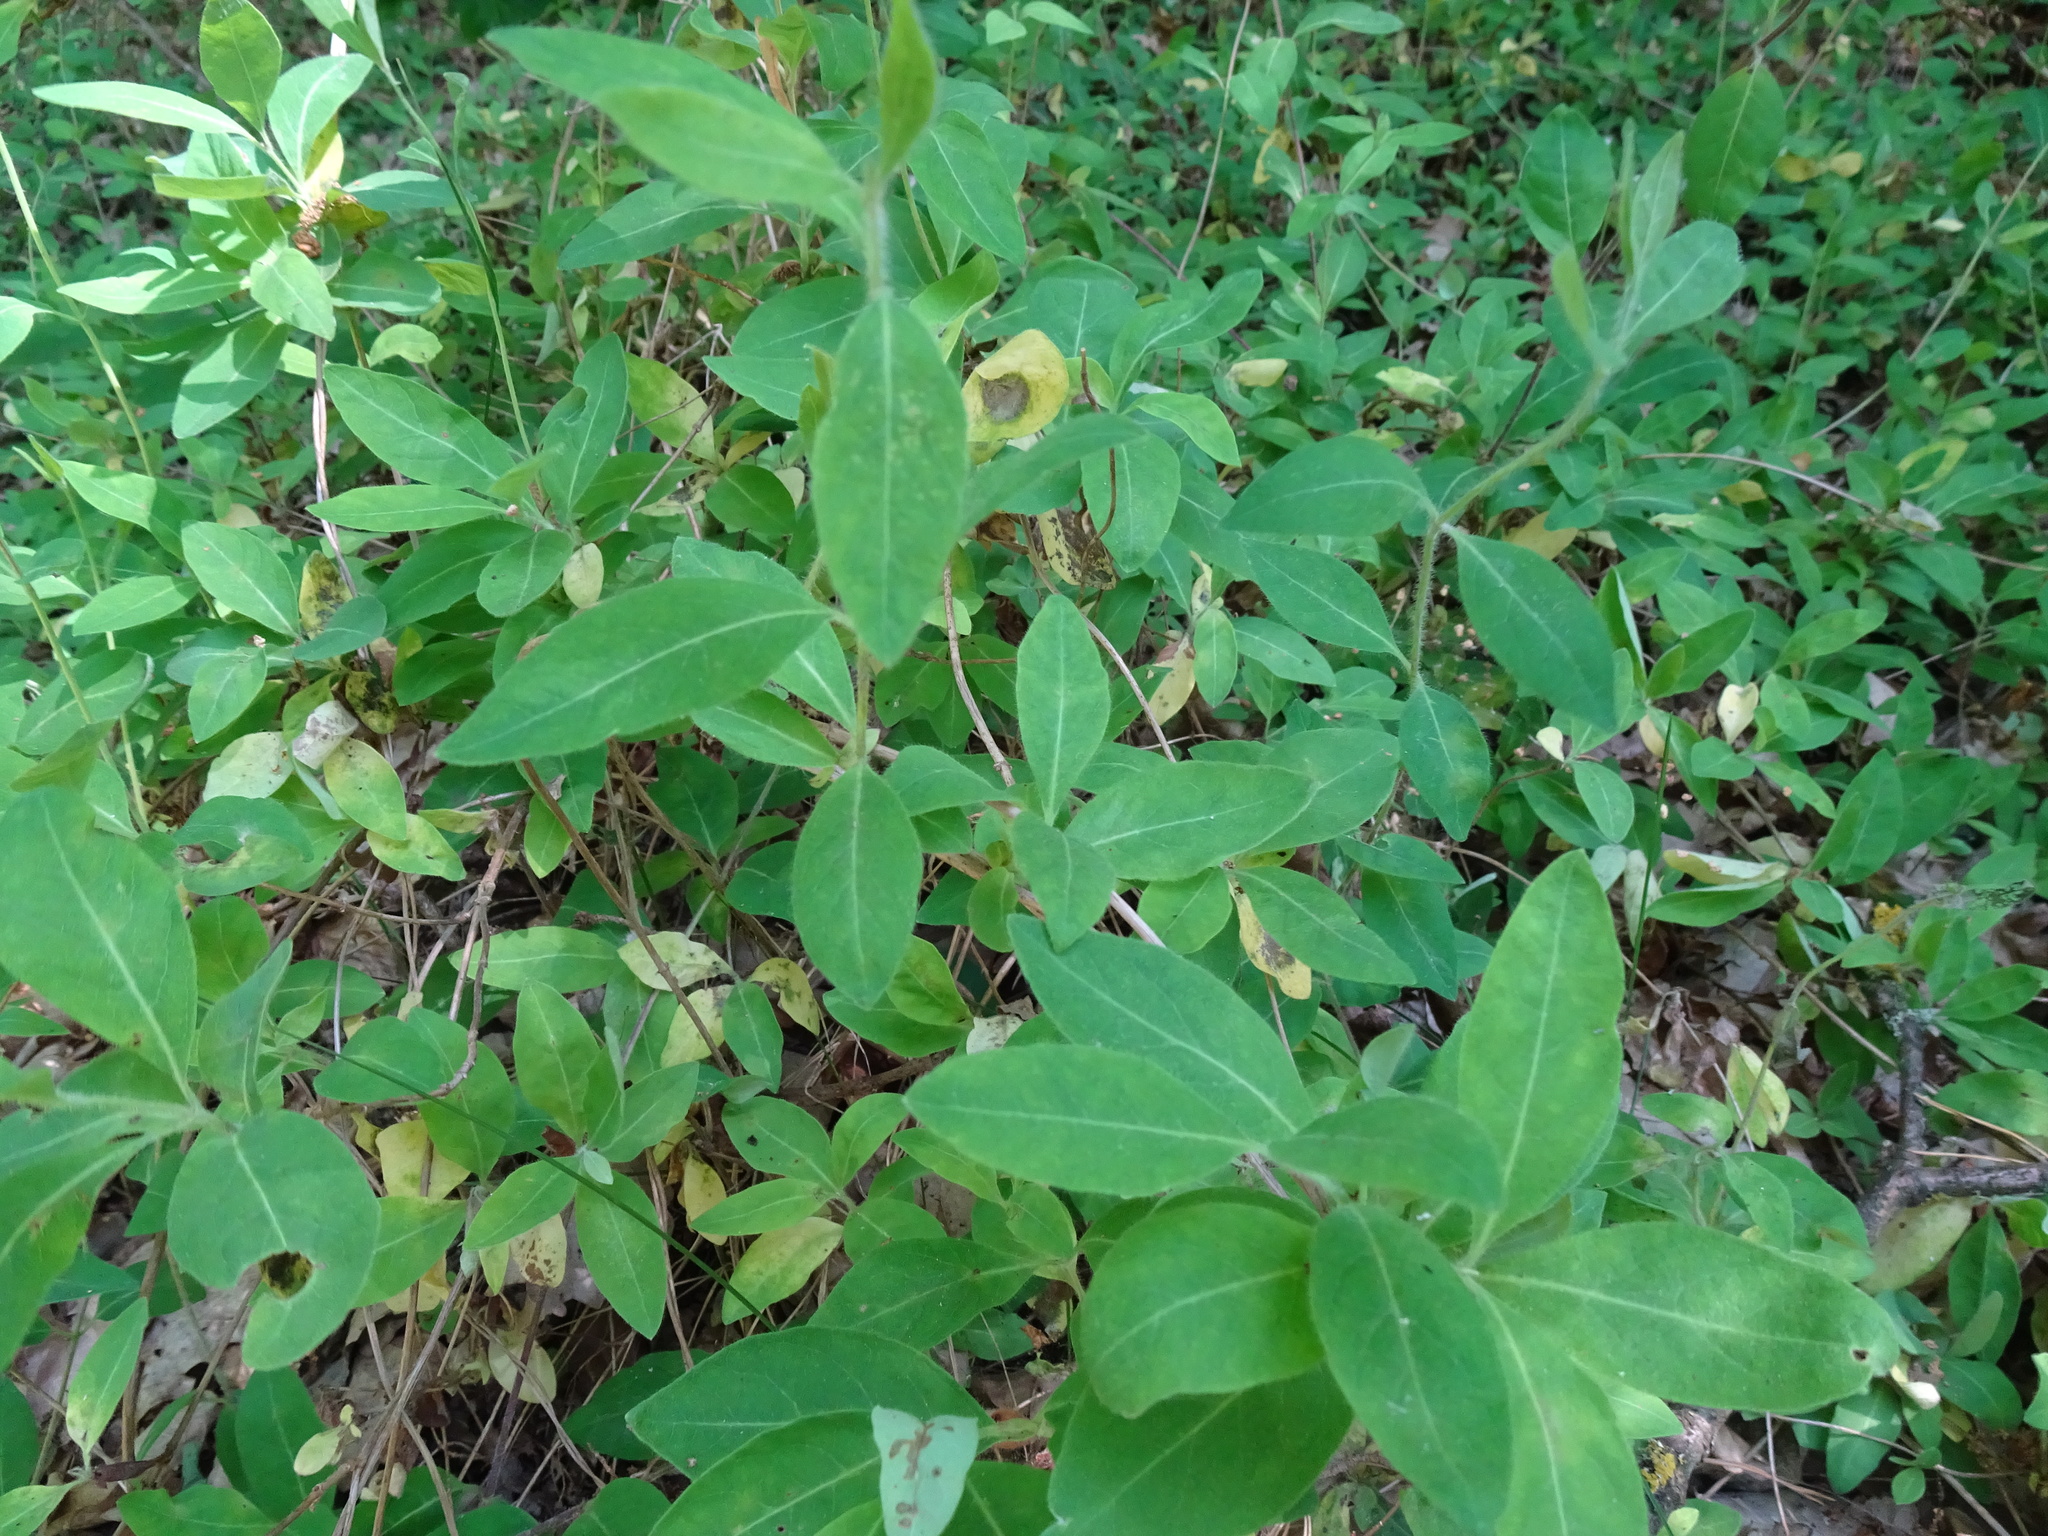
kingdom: Plantae
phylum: Tracheophyta
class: Magnoliopsida
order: Dipsacales
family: Caprifoliaceae
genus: Lonicera
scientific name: Lonicera periclymenum
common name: European honeysuckle
